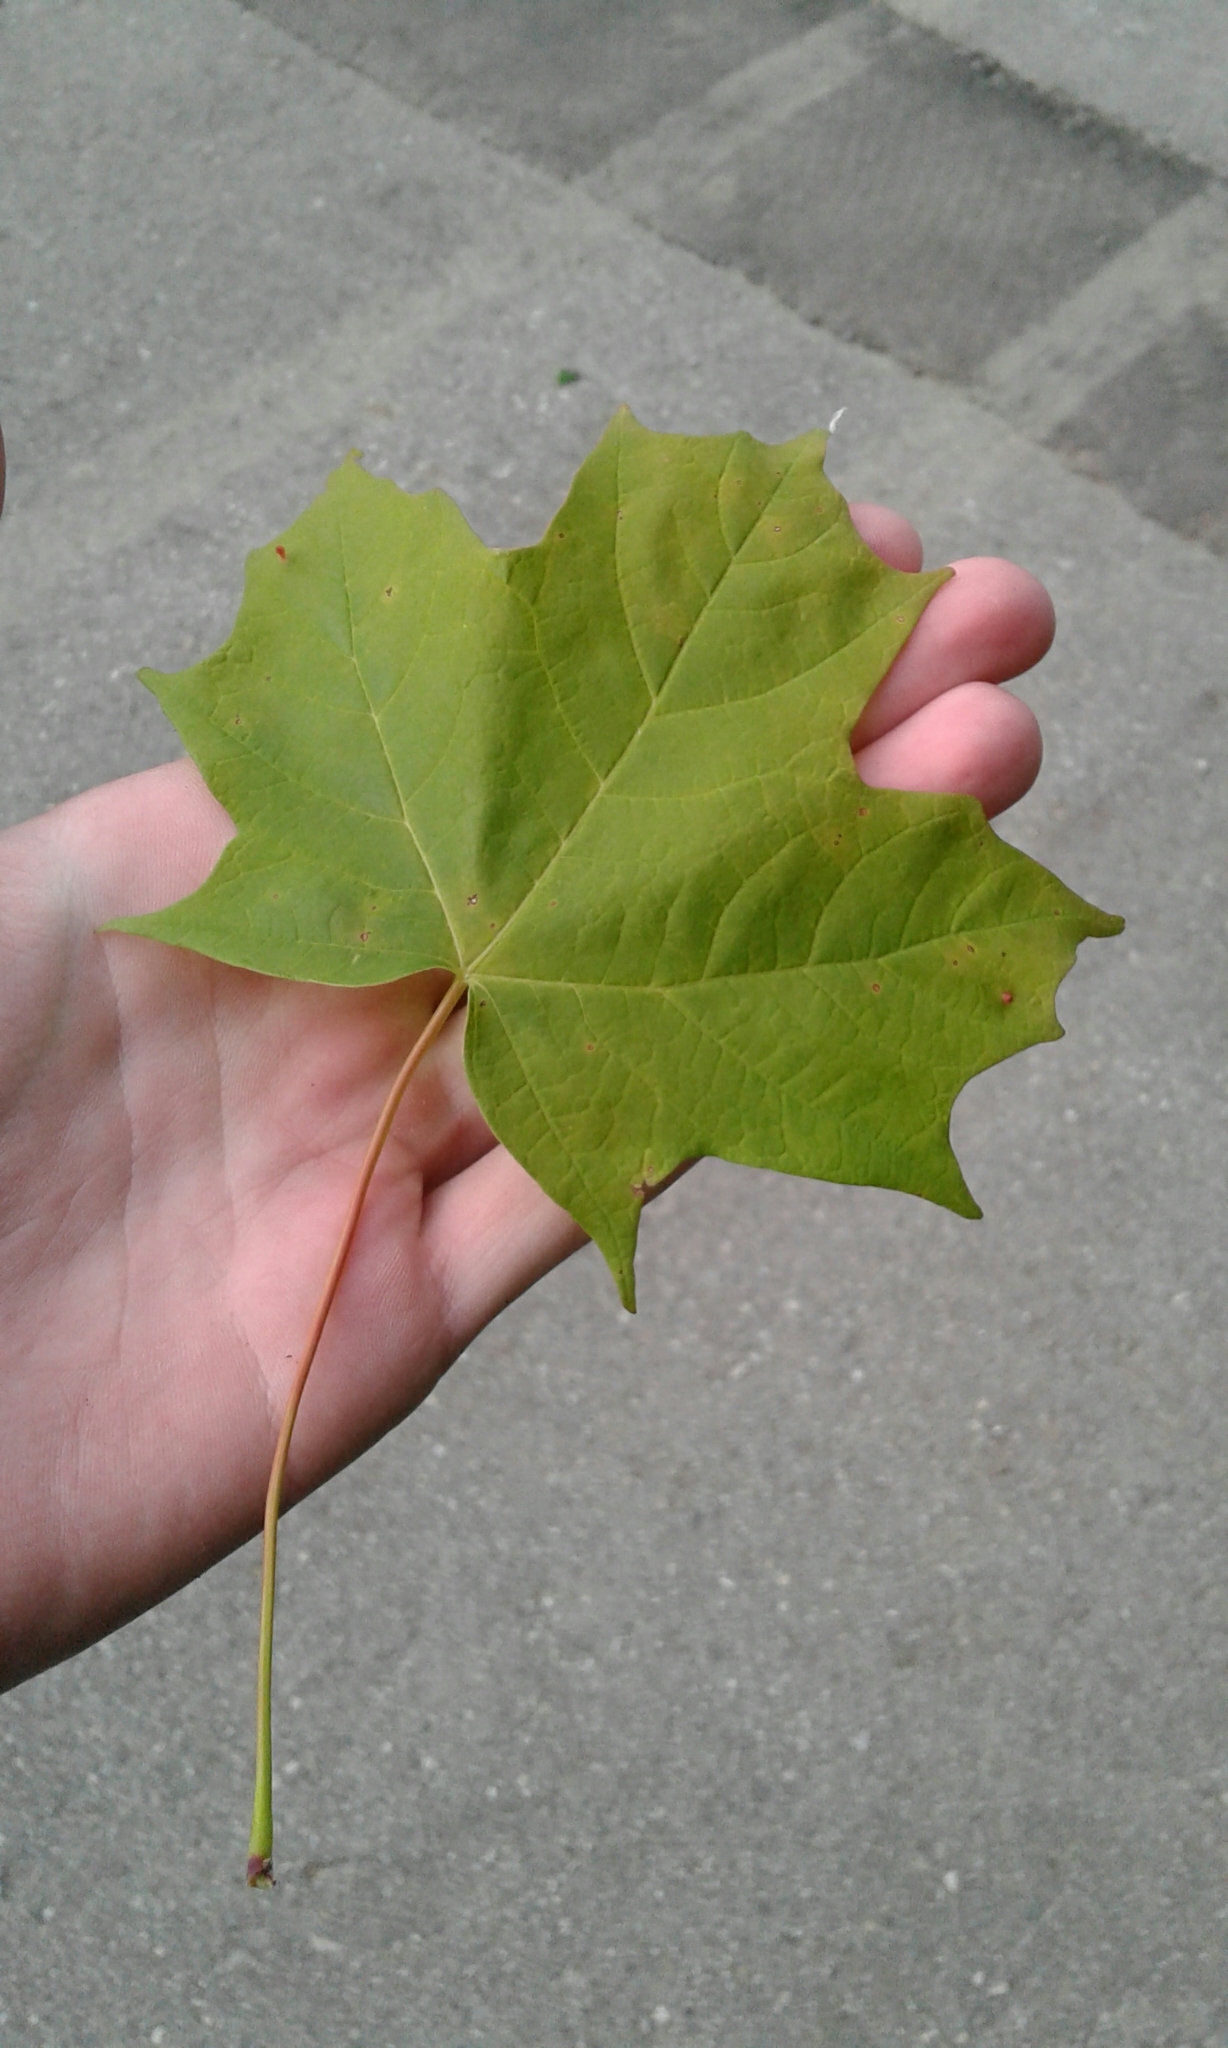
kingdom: Plantae
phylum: Tracheophyta
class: Magnoliopsida
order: Sapindales
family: Sapindaceae
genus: Acer
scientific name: Acer saccharum
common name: Sugar maple
